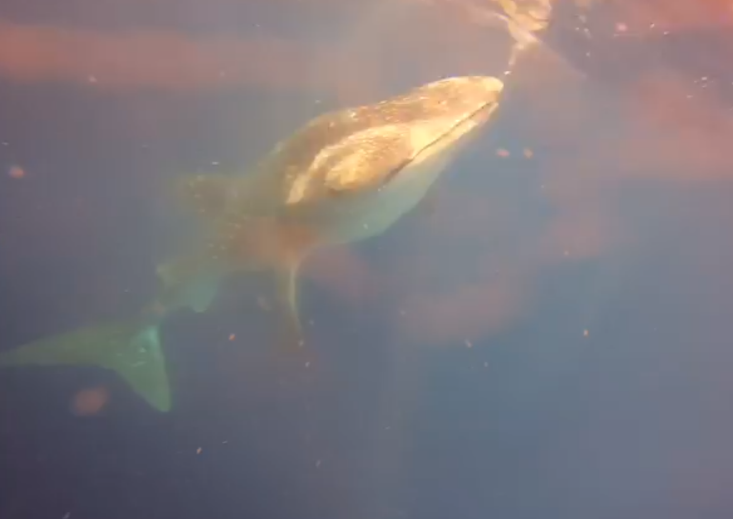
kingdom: Animalia
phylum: Chordata
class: Elasmobranchii
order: Orectolobiformes
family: Rhincodontidae
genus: Rhincodon
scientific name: Rhincodon typus
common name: Whale shark
